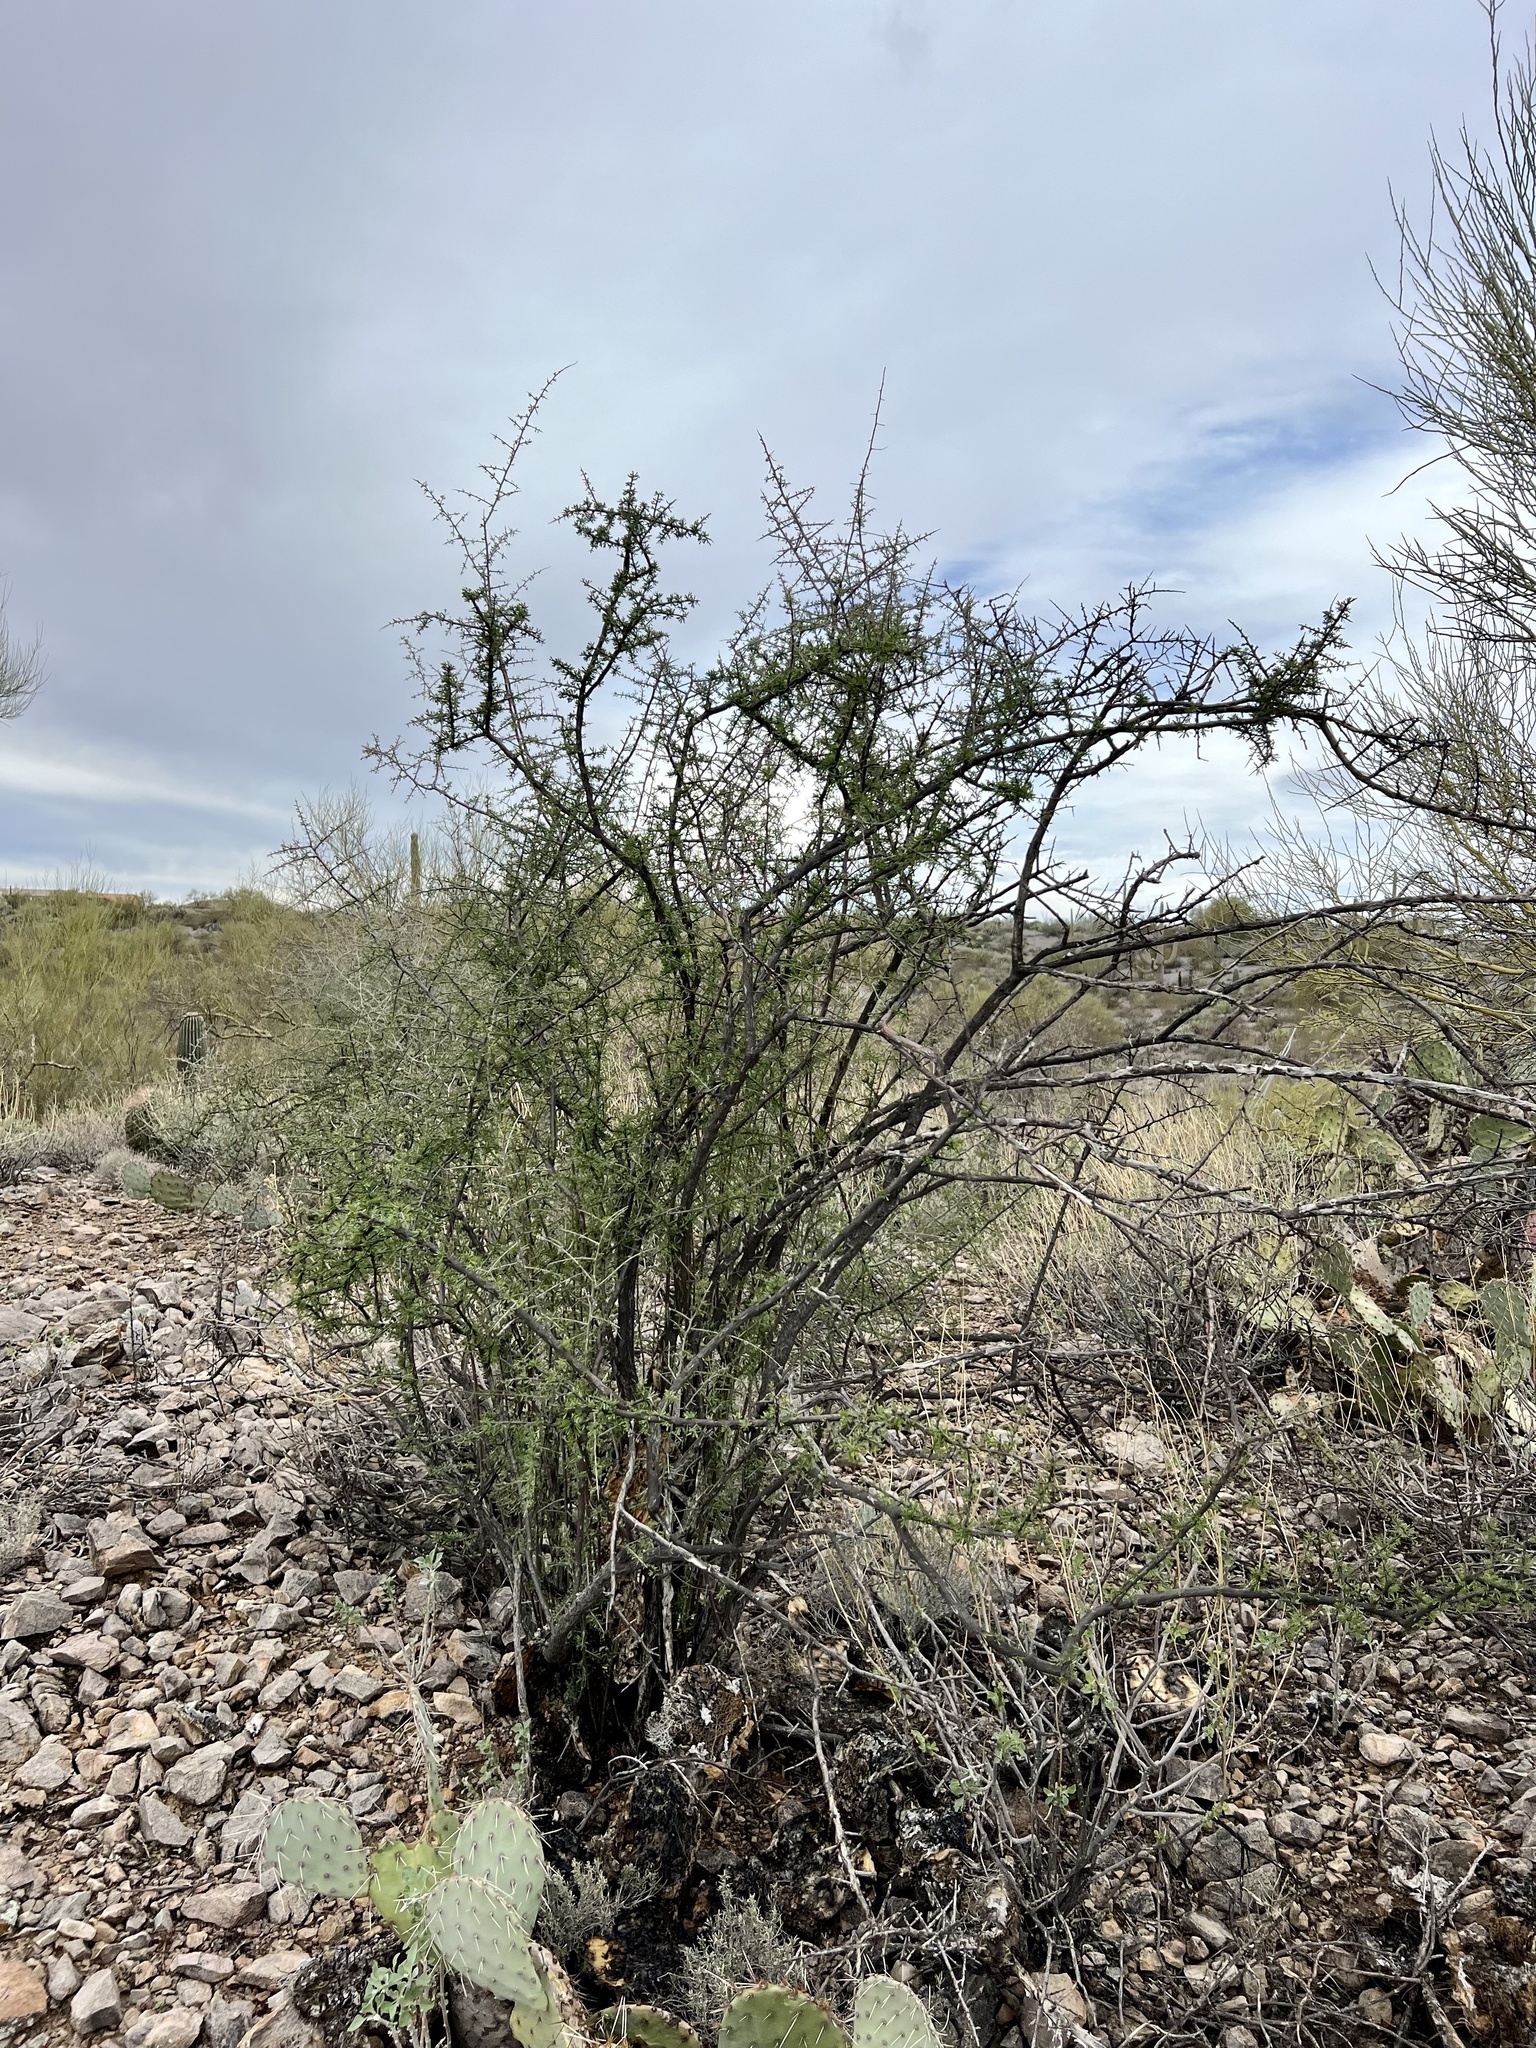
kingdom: Plantae
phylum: Tracheophyta
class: Magnoliopsida
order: Solanales
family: Solanaceae
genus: Lycium
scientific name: Lycium berlandieri
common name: Berlandier wolfberry
